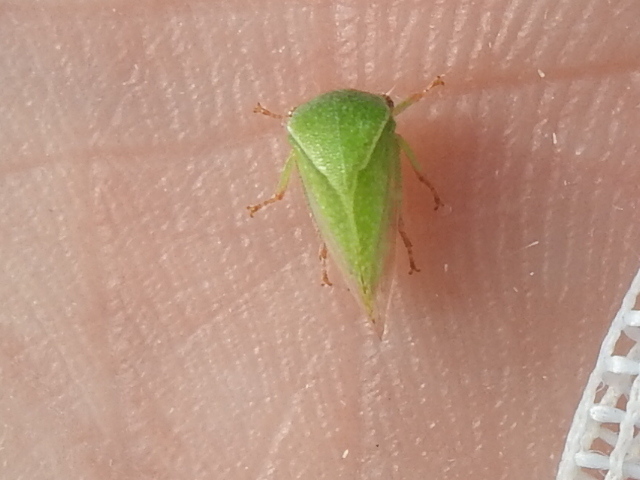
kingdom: Animalia
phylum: Arthropoda
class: Insecta
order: Hemiptera
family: Membracidae
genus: Spissistilus
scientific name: Spissistilus festina
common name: Membracid bug
